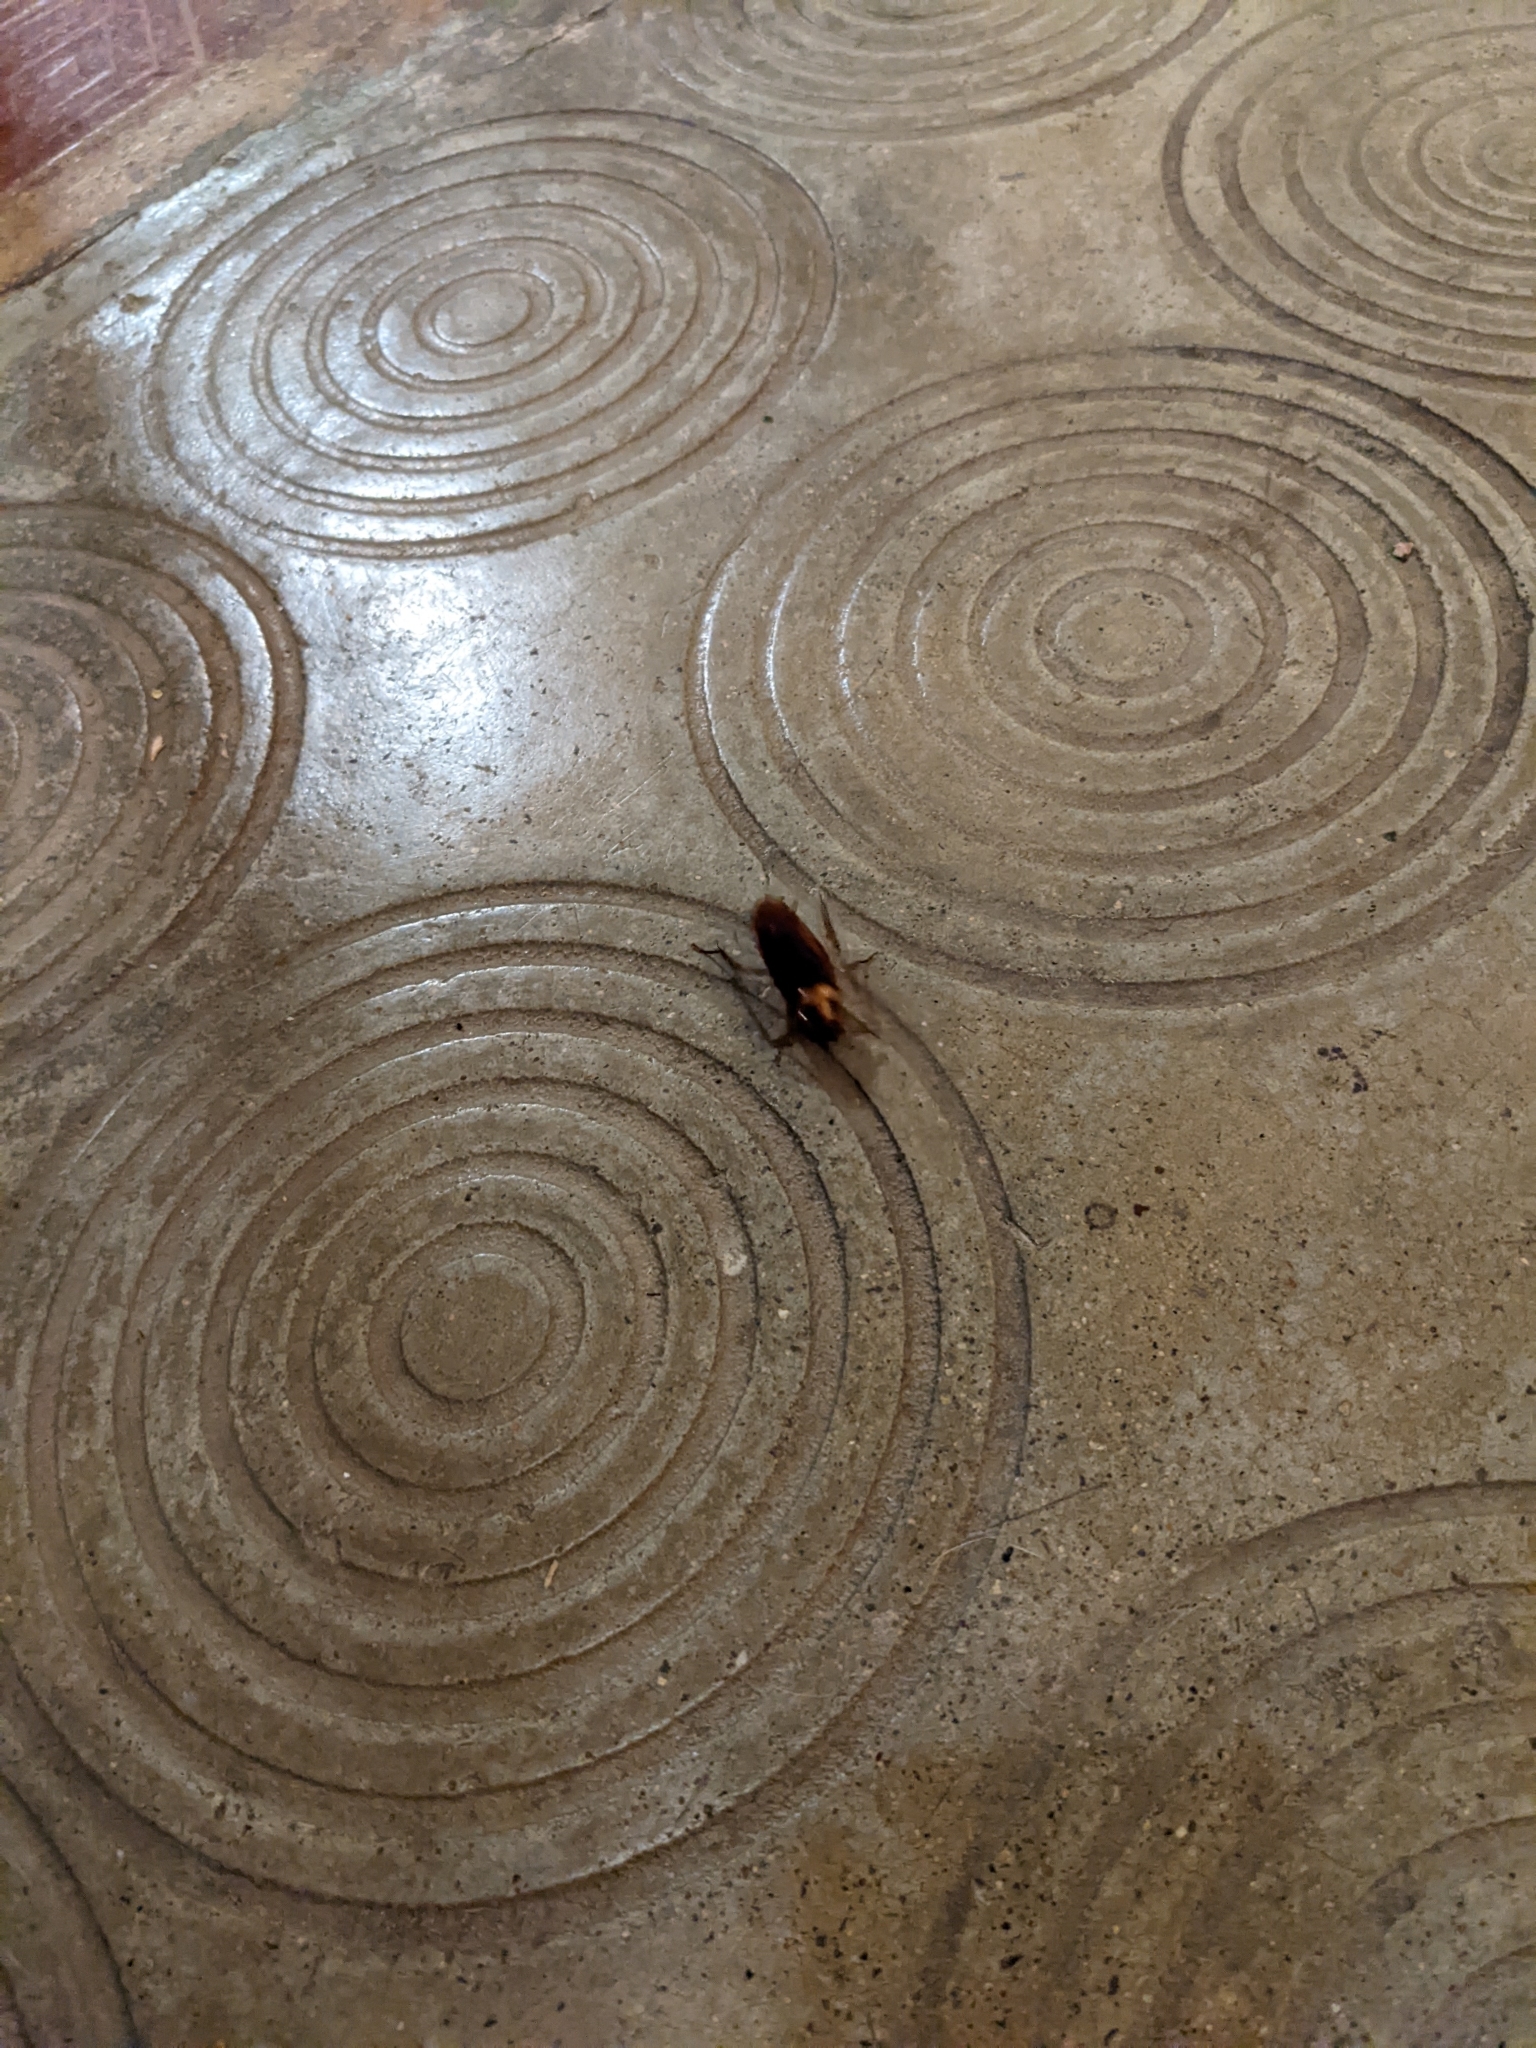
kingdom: Animalia
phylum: Arthropoda
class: Insecta
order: Blattodea
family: Blattidae
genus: Periplaneta
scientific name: Periplaneta americana
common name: American cockroach
